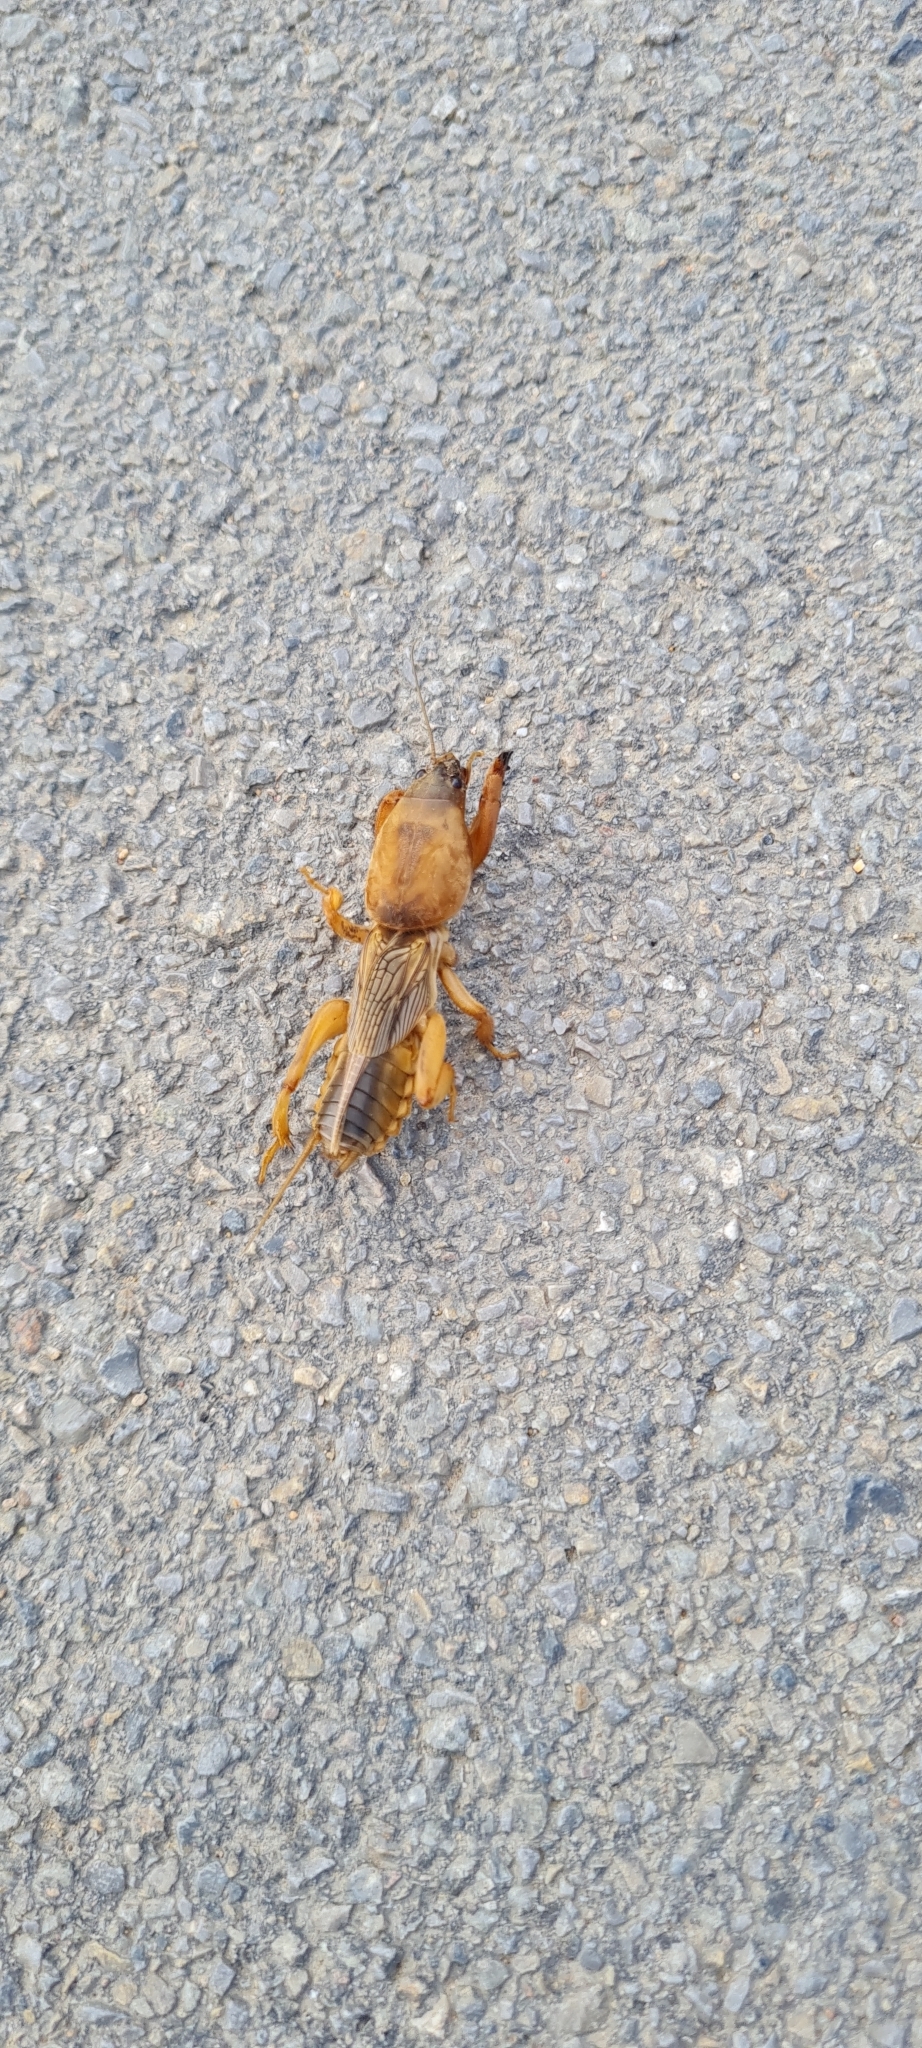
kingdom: Animalia
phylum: Arthropoda
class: Insecta
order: Orthoptera
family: Gryllotalpidae
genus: Gryllotalpa
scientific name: Gryllotalpa septemdecimchromosomica
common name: Seventeen-chromosome mole-cricket
